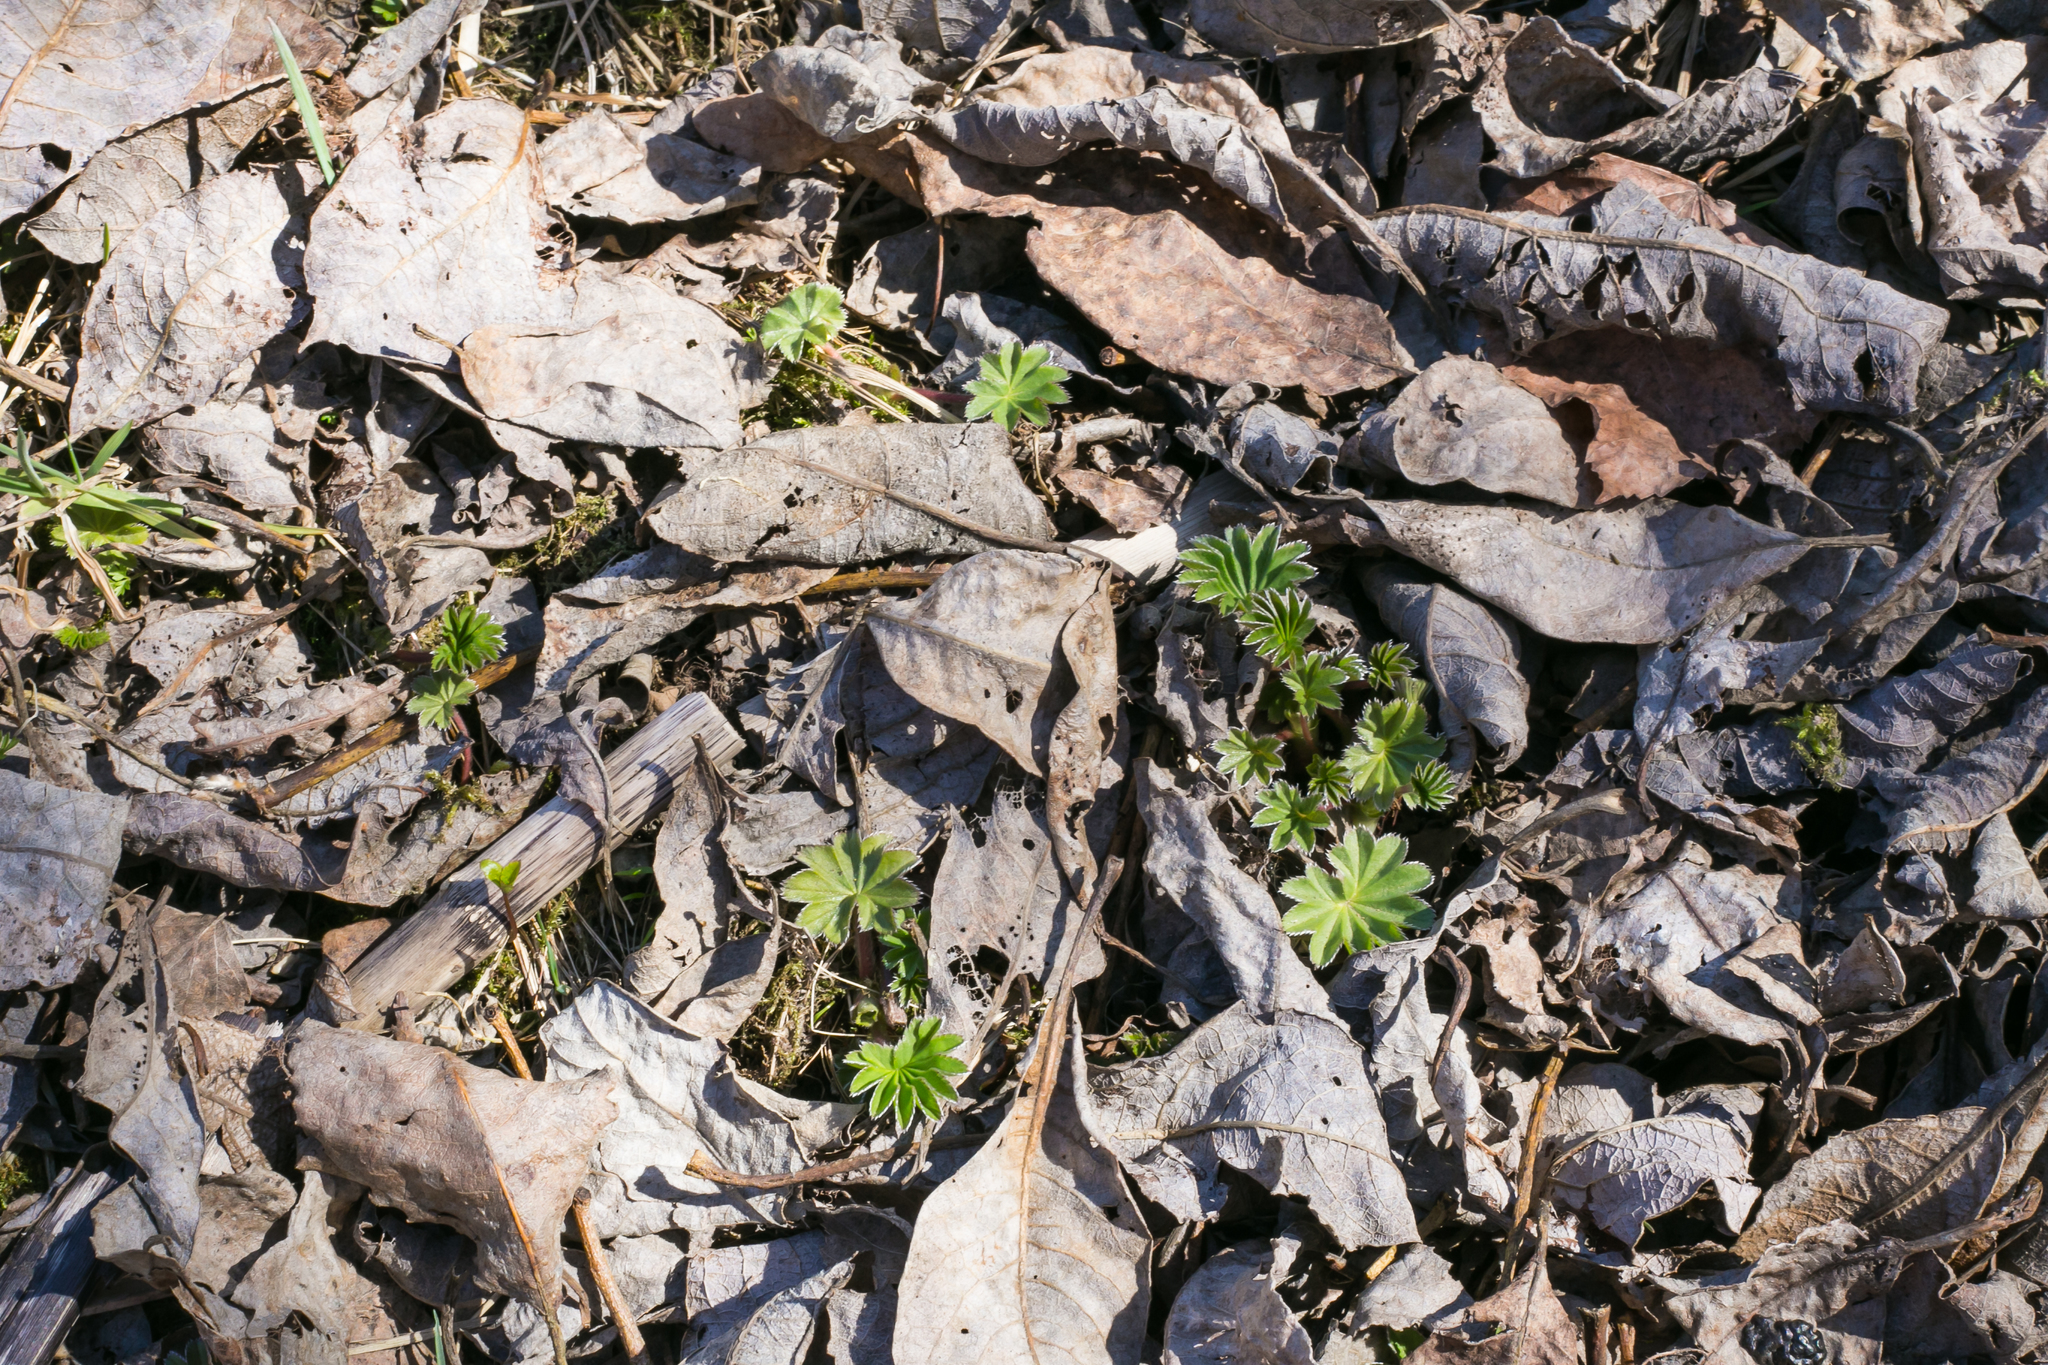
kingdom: Plantae
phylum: Tracheophyta
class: Magnoliopsida
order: Rosales
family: Rosaceae
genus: Alchemilla
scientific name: Alchemilla vulgaris
